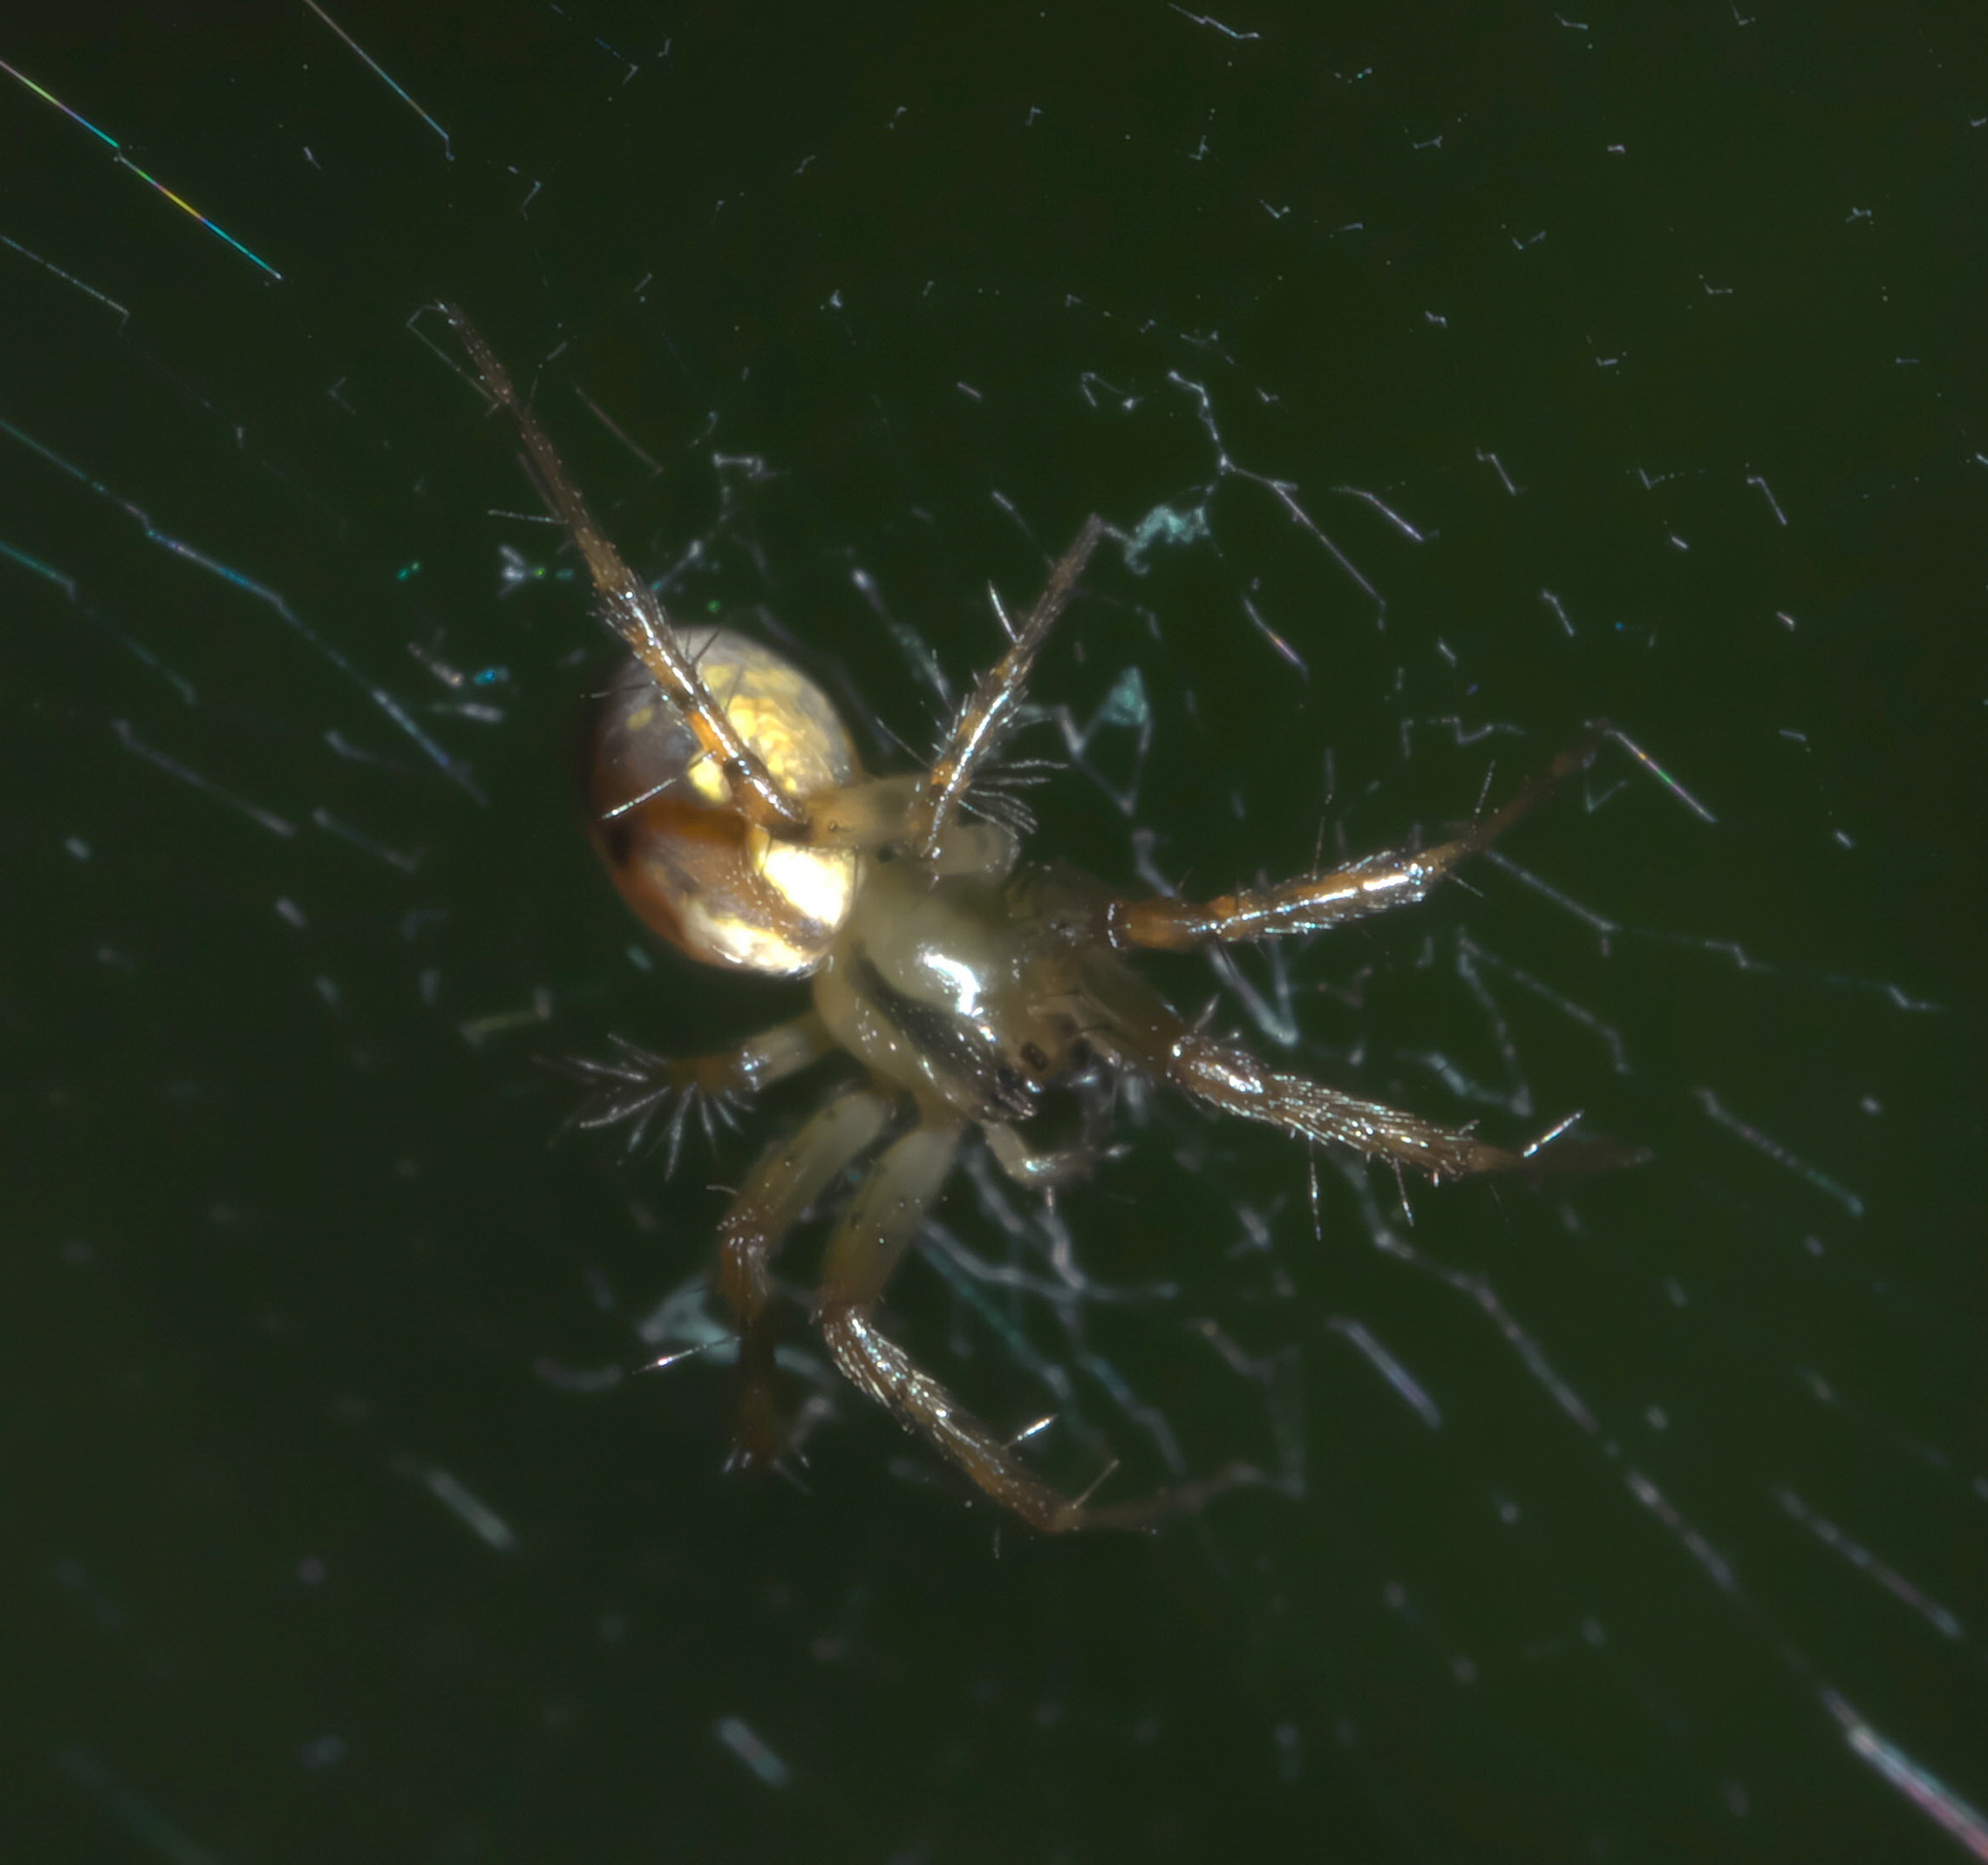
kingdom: Animalia
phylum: Arthropoda
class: Arachnida
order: Araneae
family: Araneidae
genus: Mangora
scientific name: Mangora placida
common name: Tuft-legged orbweaver
